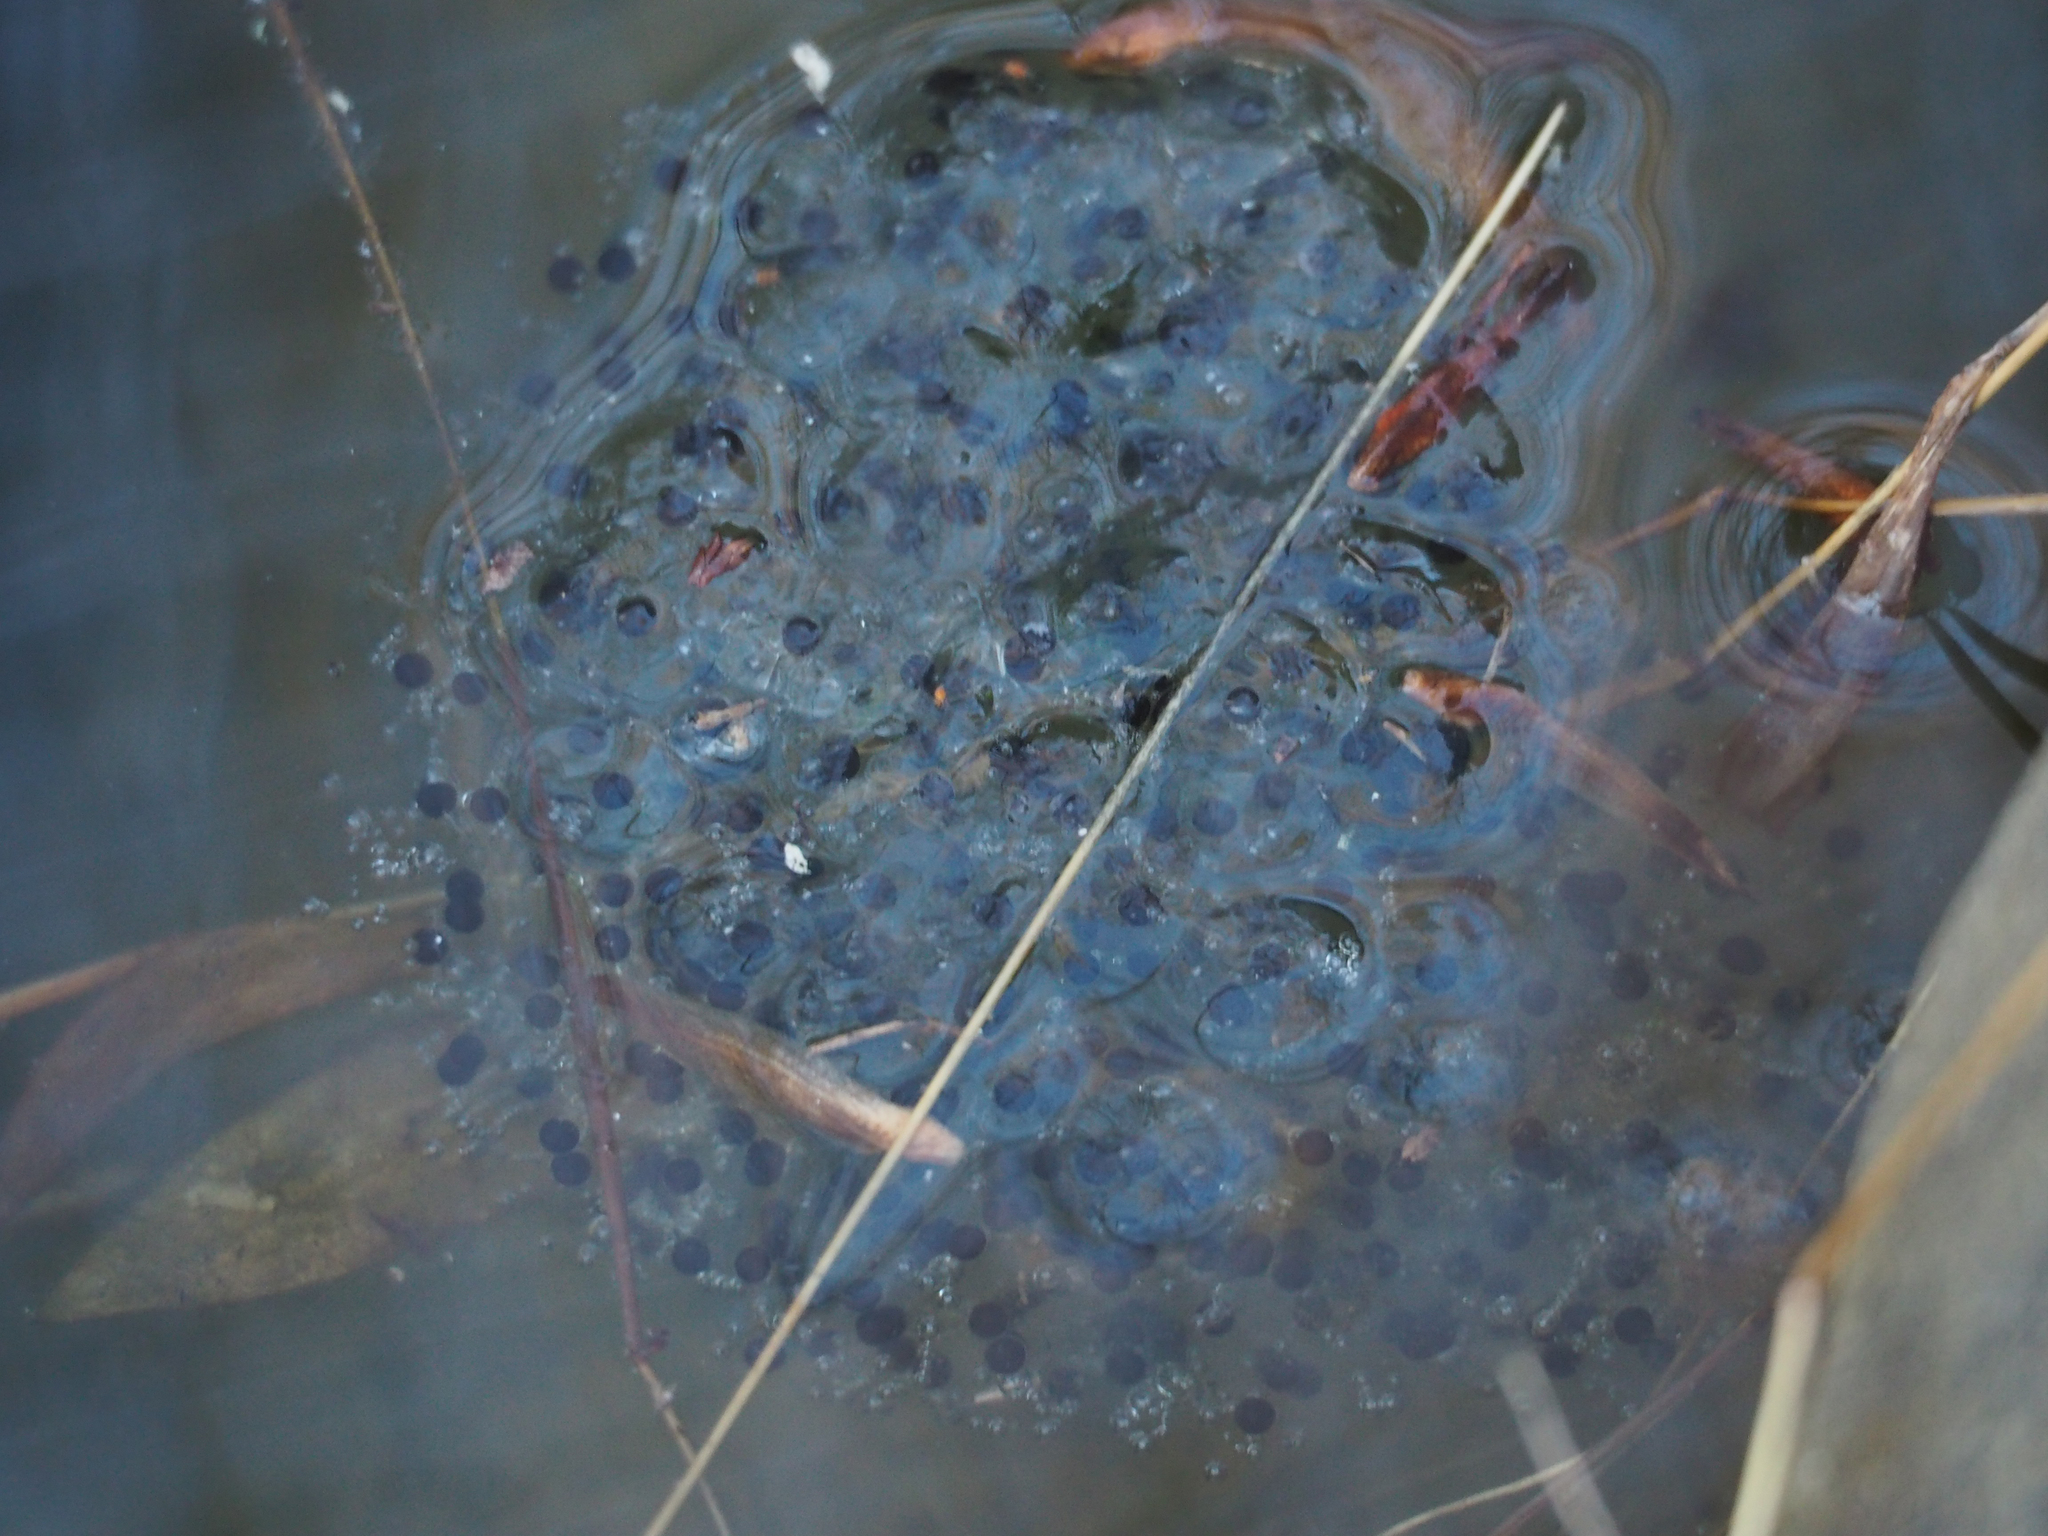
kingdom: Animalia
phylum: Chordata
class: Amphibia
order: Anura
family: Ranidae
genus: Lithobates
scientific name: Lithobates sylvaticus
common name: Wood frog
